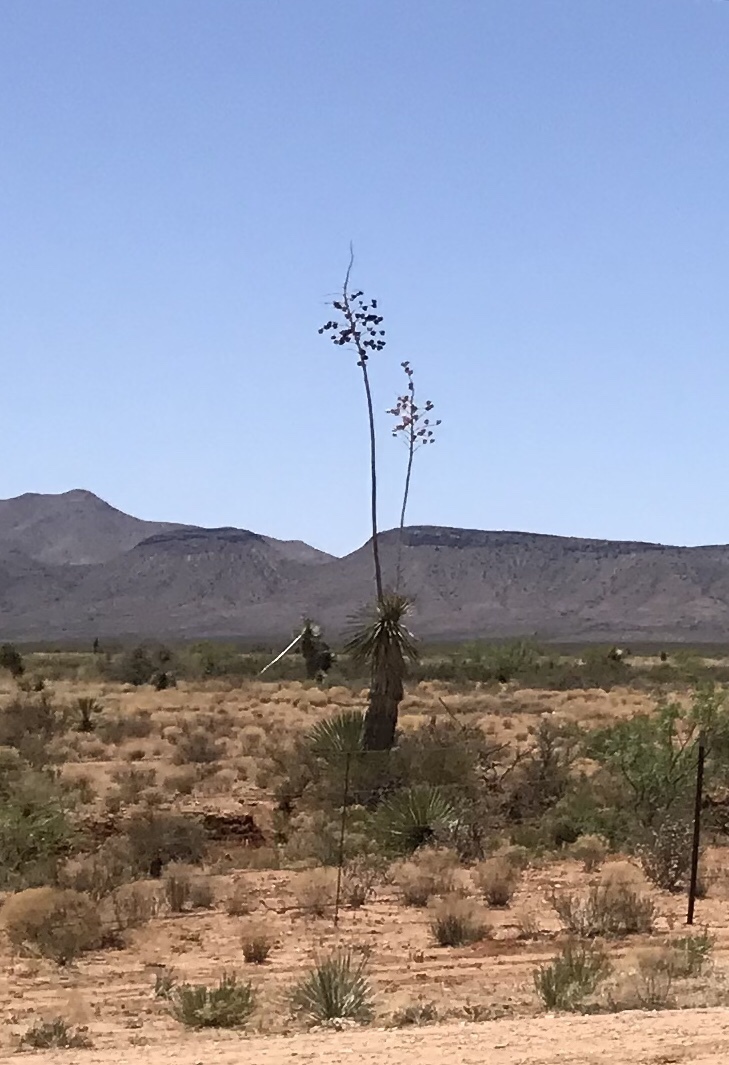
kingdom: Plantae
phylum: Tracheophyta
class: Liliopsida
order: Asparagales
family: Asparagaceae
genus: Yucca
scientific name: Yucca elata
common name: Palmella
